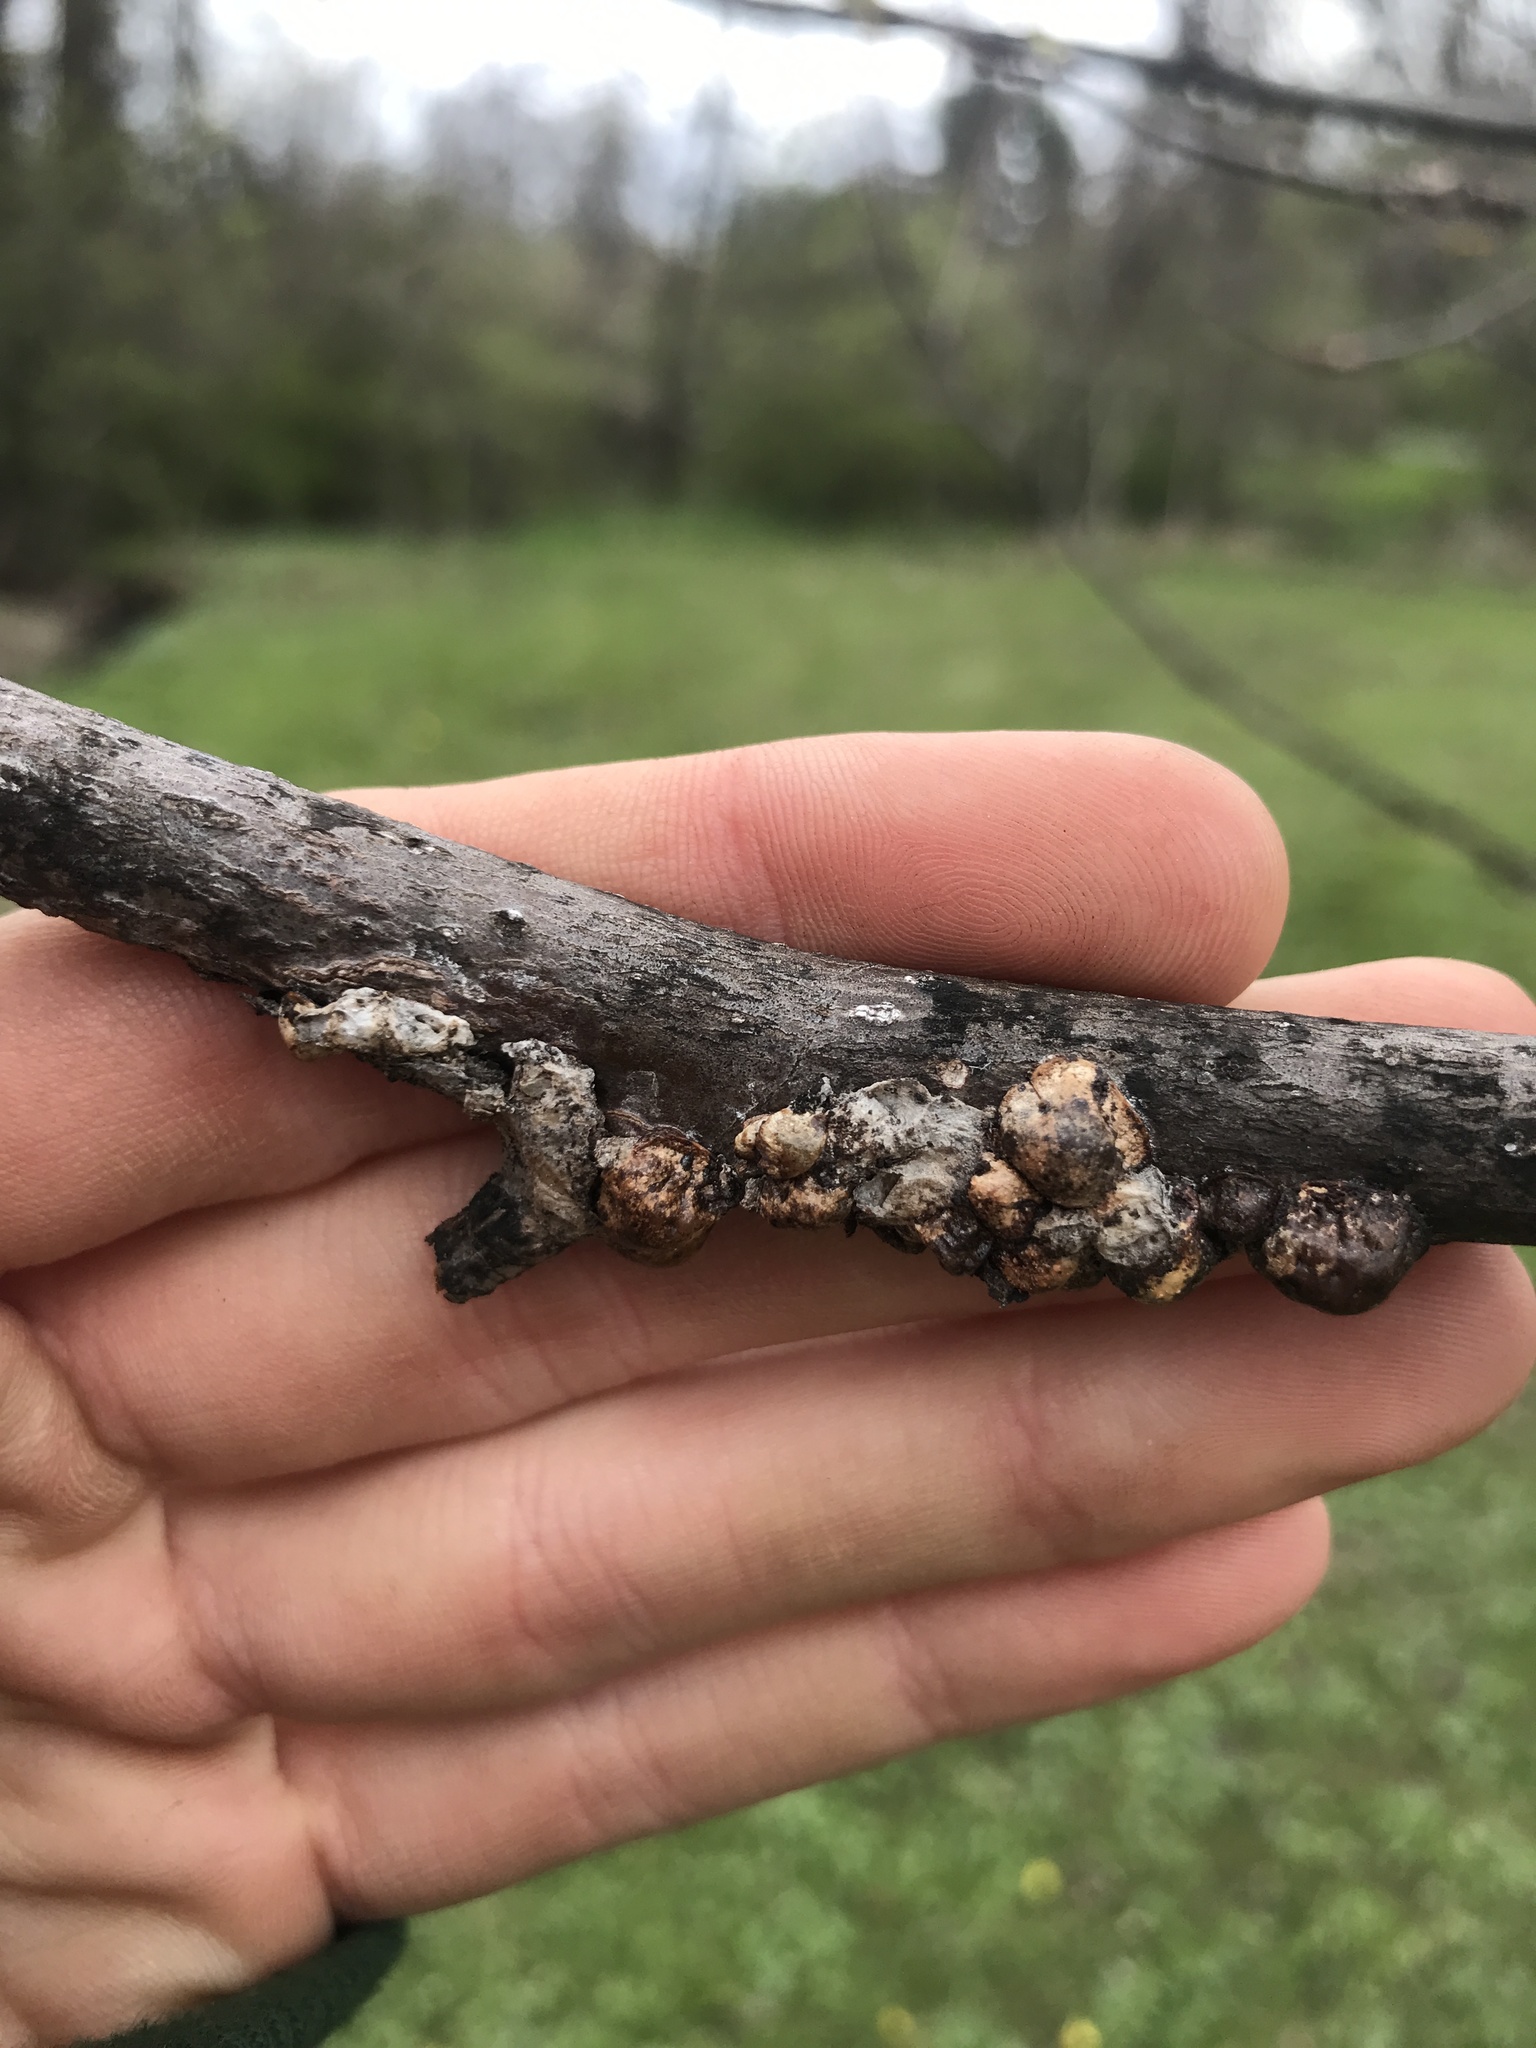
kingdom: Animalia
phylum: Arthropoda
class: Insecta
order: Hemiptera
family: Coccidae
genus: Toumeyella
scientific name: Toumeyella liriodendri
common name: Tuliptree scale
